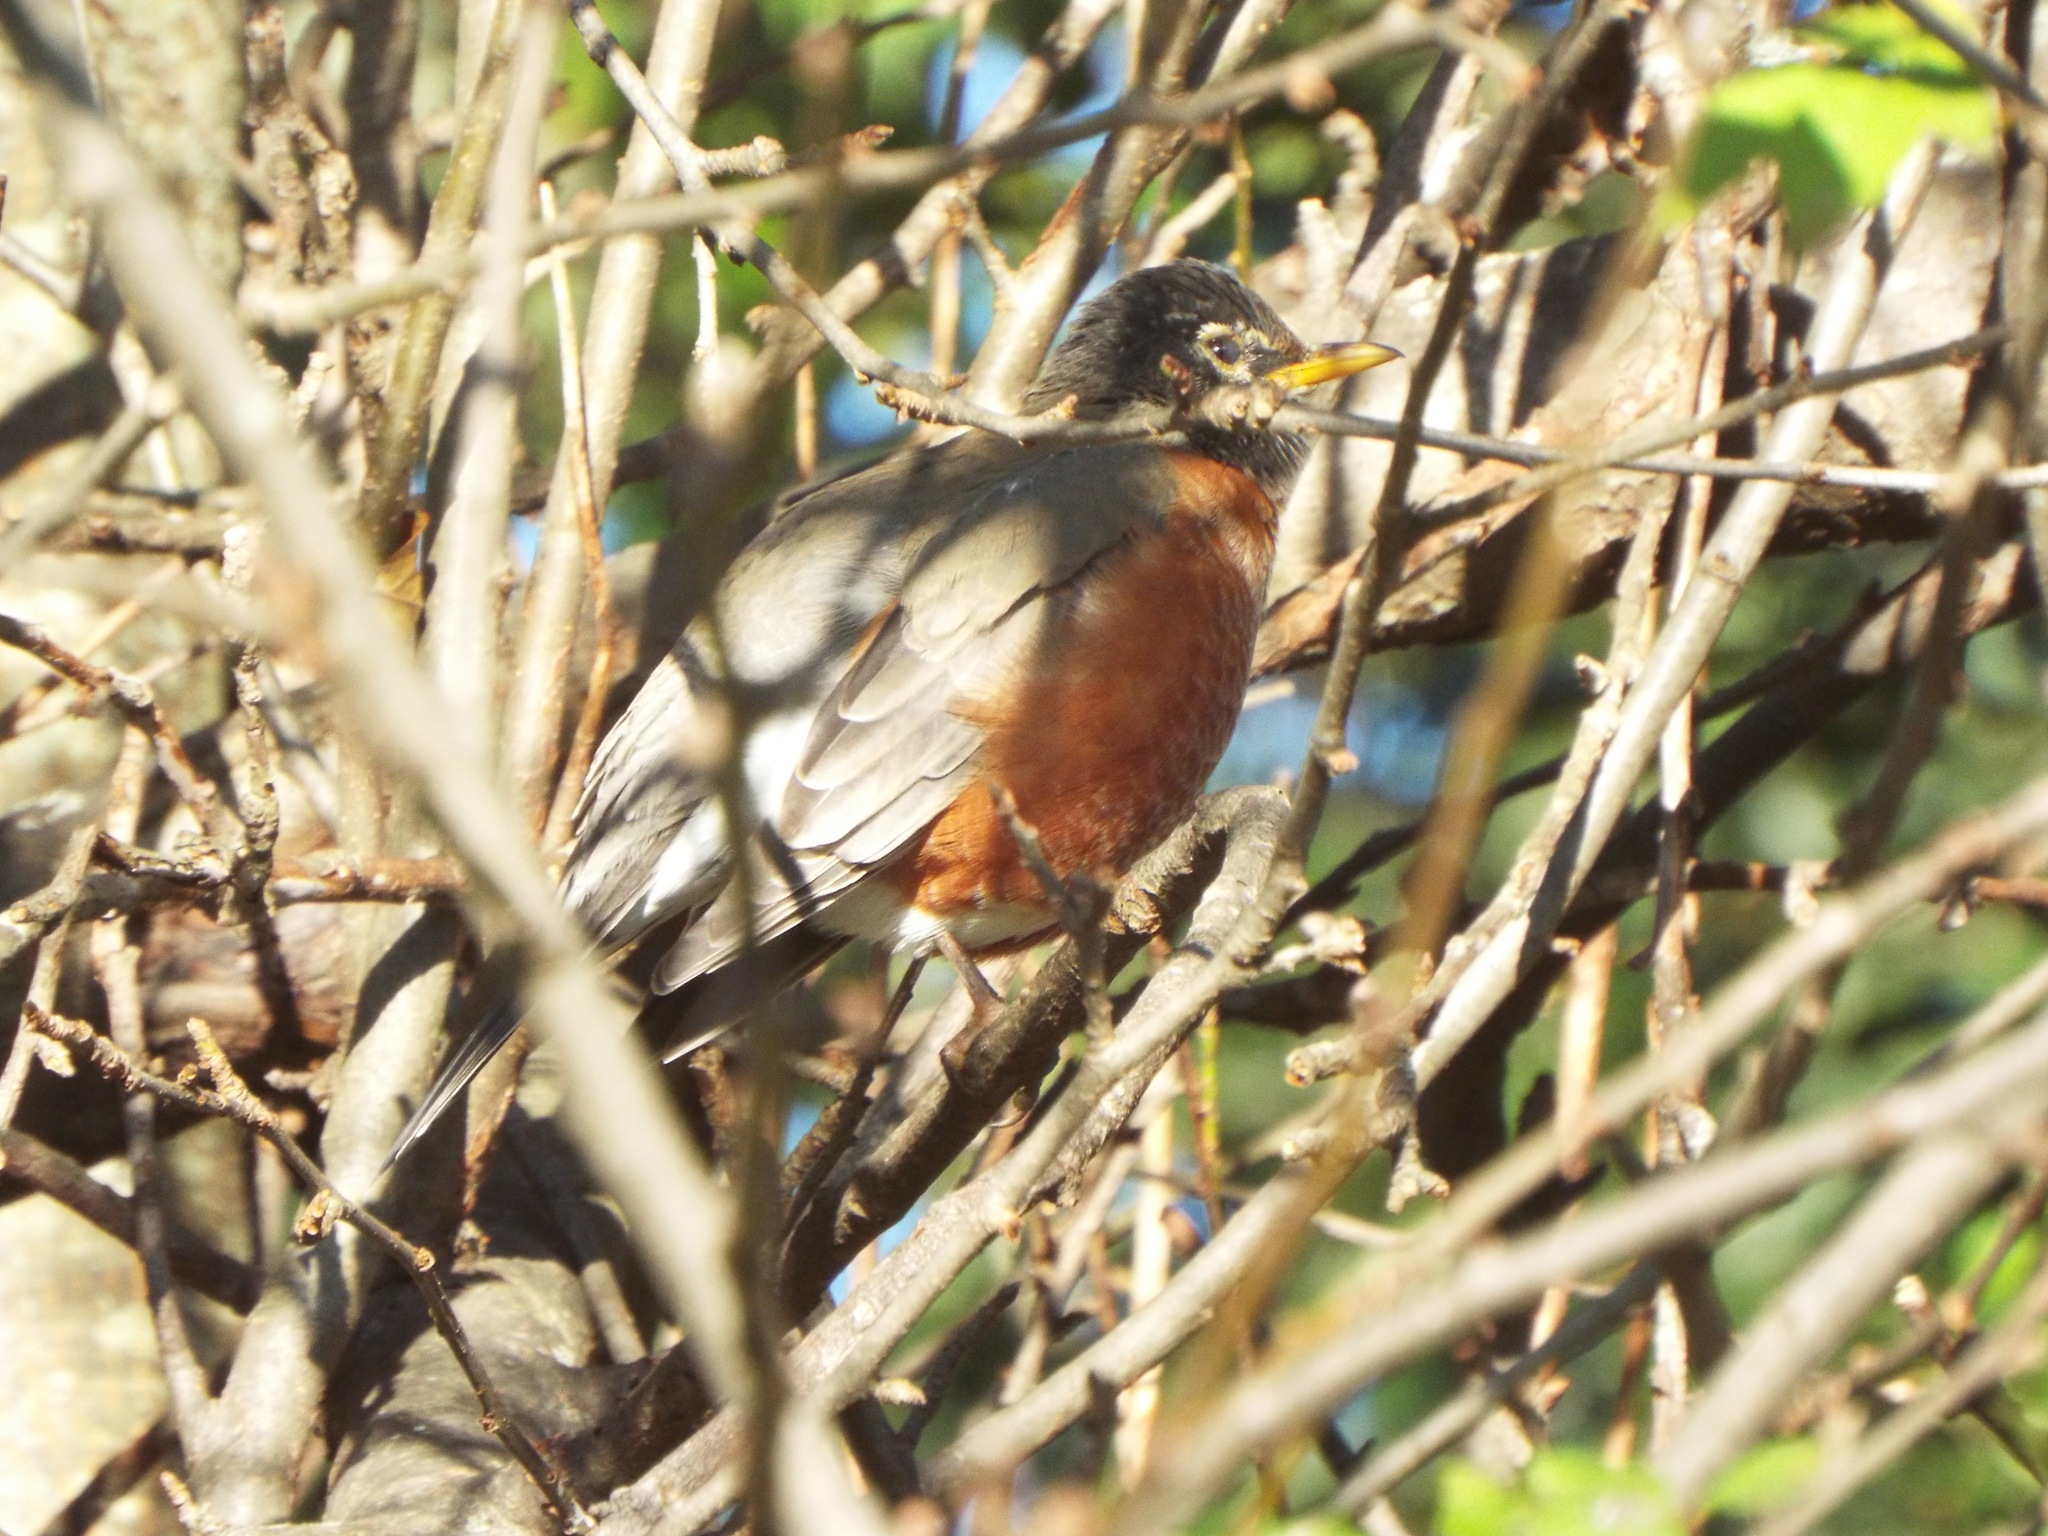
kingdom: Animalia
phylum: Chordata
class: Aves
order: Passeriformes
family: Turdidae
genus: Turdus
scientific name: Turdus migratorius
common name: American robin
